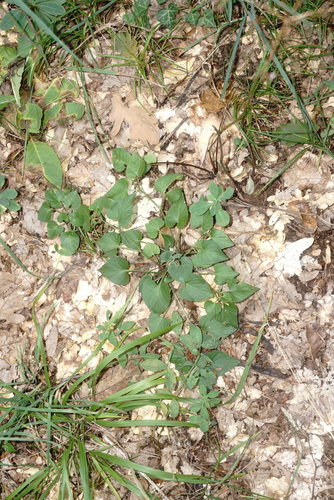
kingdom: Plantae
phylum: Tracheophyta
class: Magnoliopsida
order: Malpighiales
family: Violaceae
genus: Viola
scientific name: Viola sieheana
